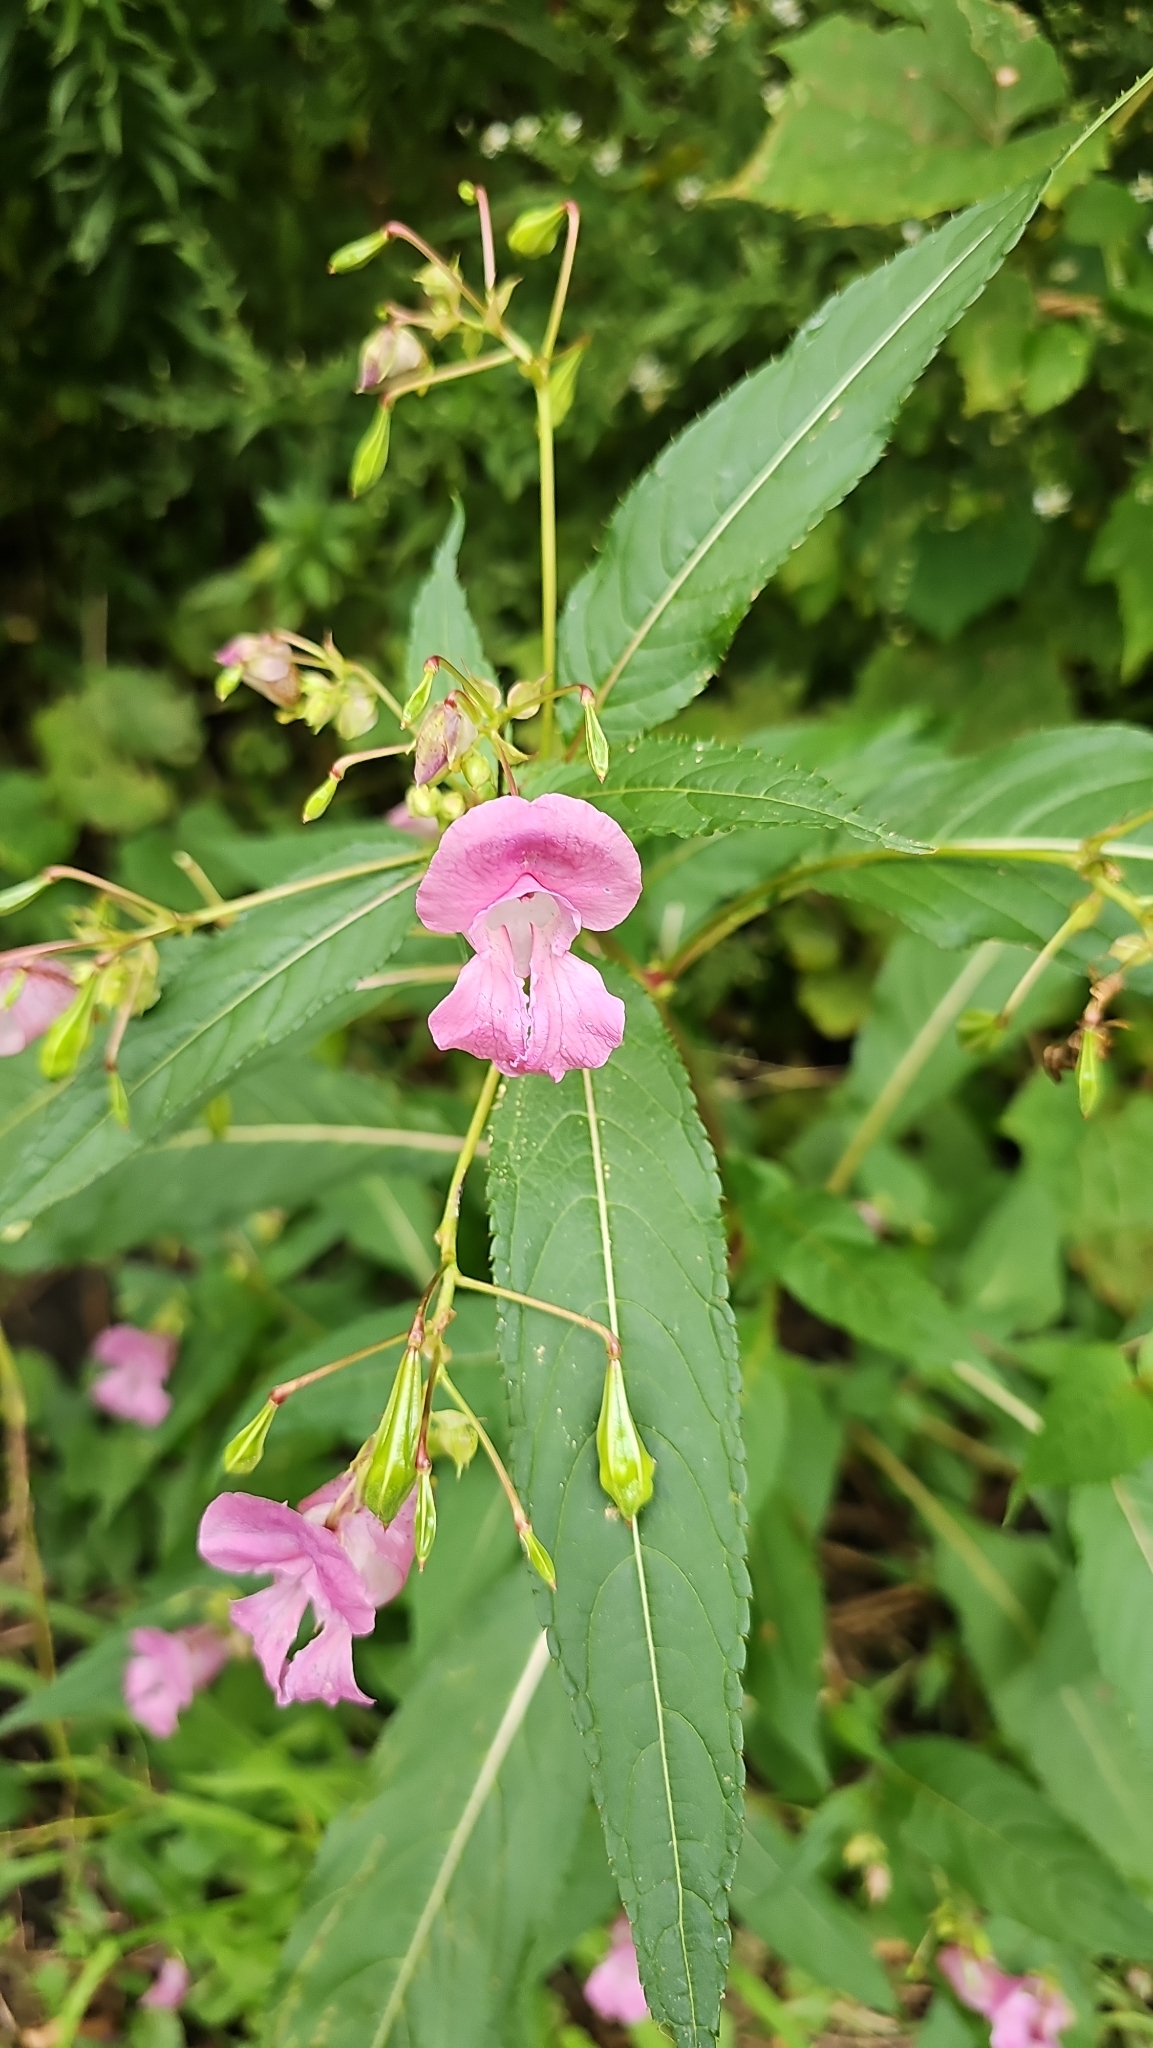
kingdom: Plantae
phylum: Tracheophyta
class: Magnoliopsida
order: Ericales
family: Balsaminaceae
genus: Impatiens
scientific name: Impatiens glandulifera
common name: Himalayan balsam
